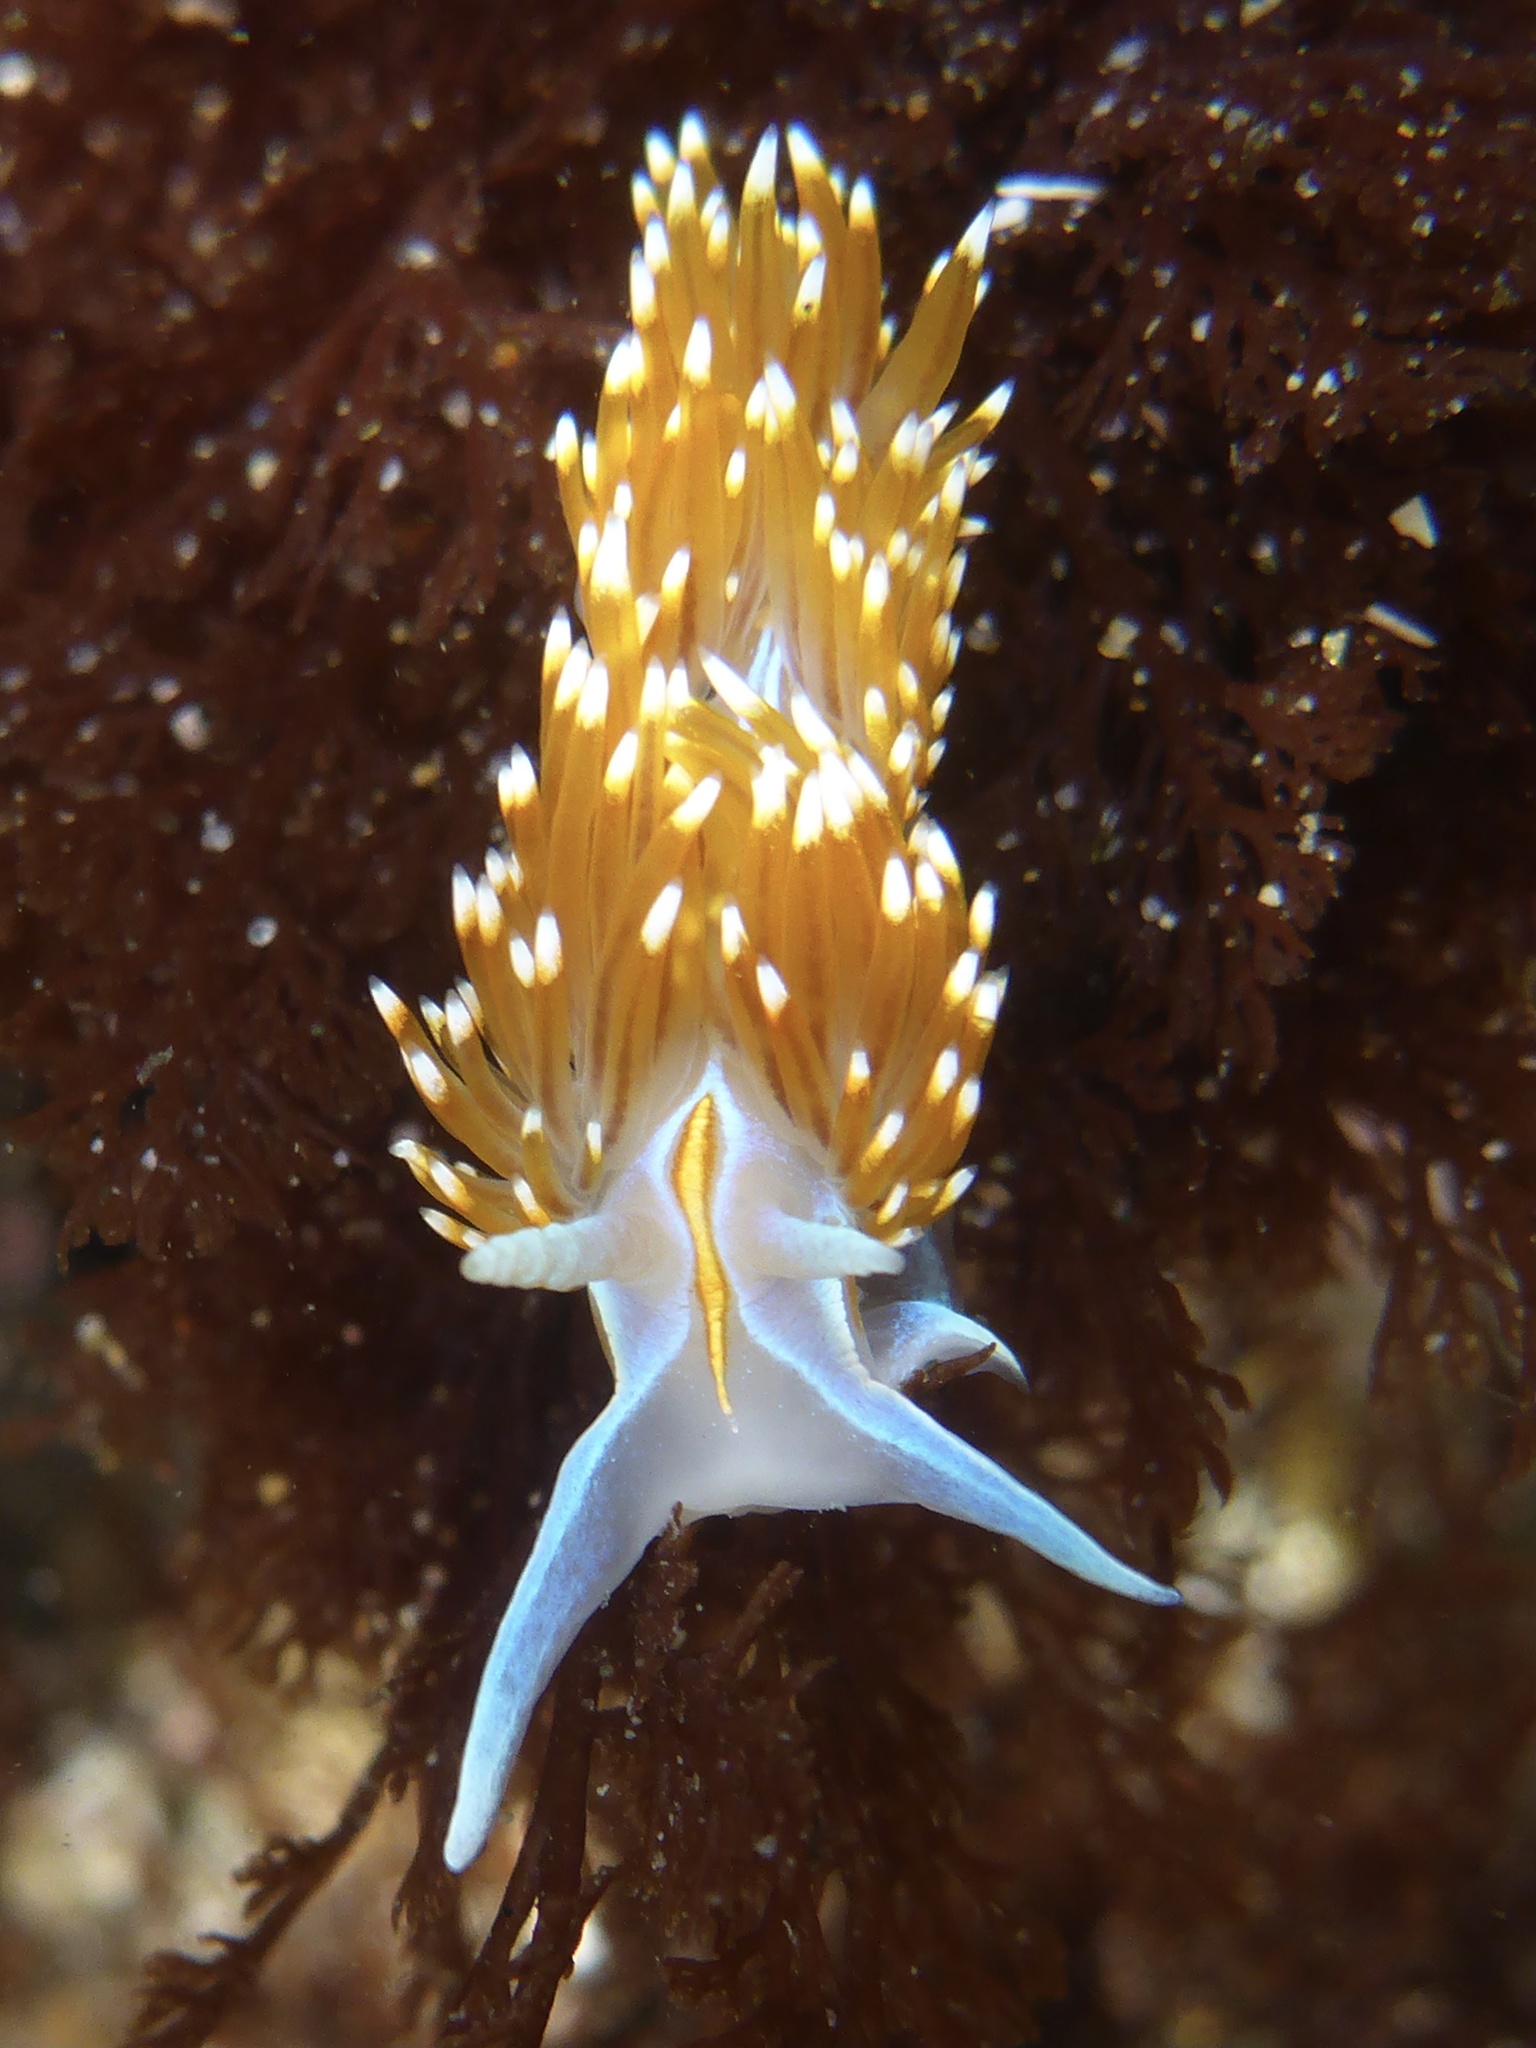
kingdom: Animalia
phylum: Mollusca
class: Gastropoda
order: Nudibranchia
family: Myrrhinidae
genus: Hermissenda
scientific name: Hermissenda opalescens
